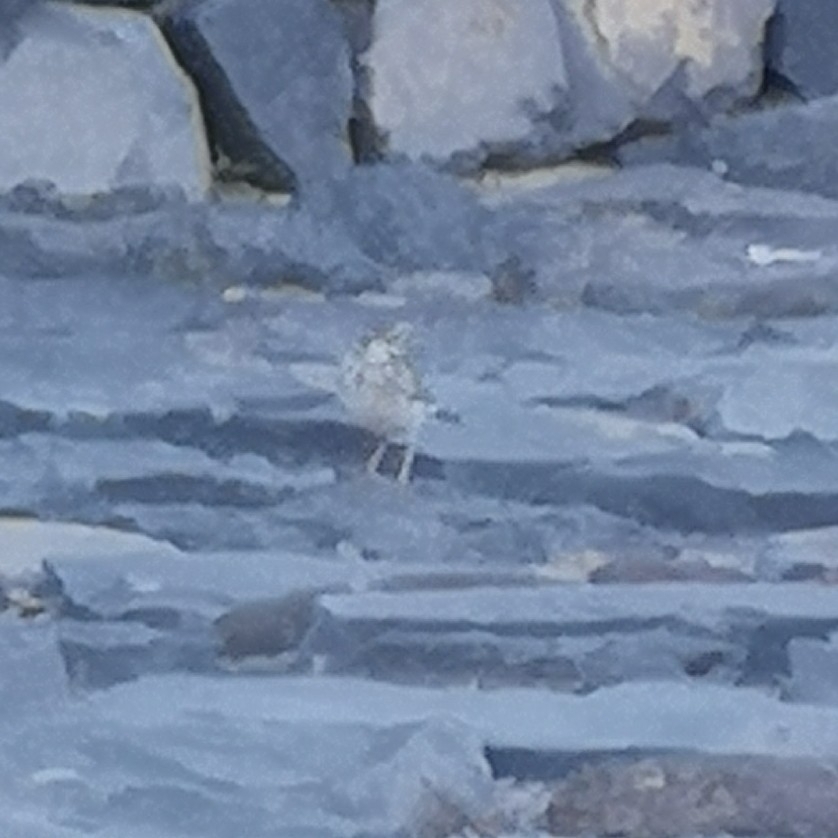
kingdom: Animalia
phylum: Chordata
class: Aves
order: Passeriformes
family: Motacillidae
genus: Anthus
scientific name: Anthus berthelotii
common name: Berthelot's pipit
